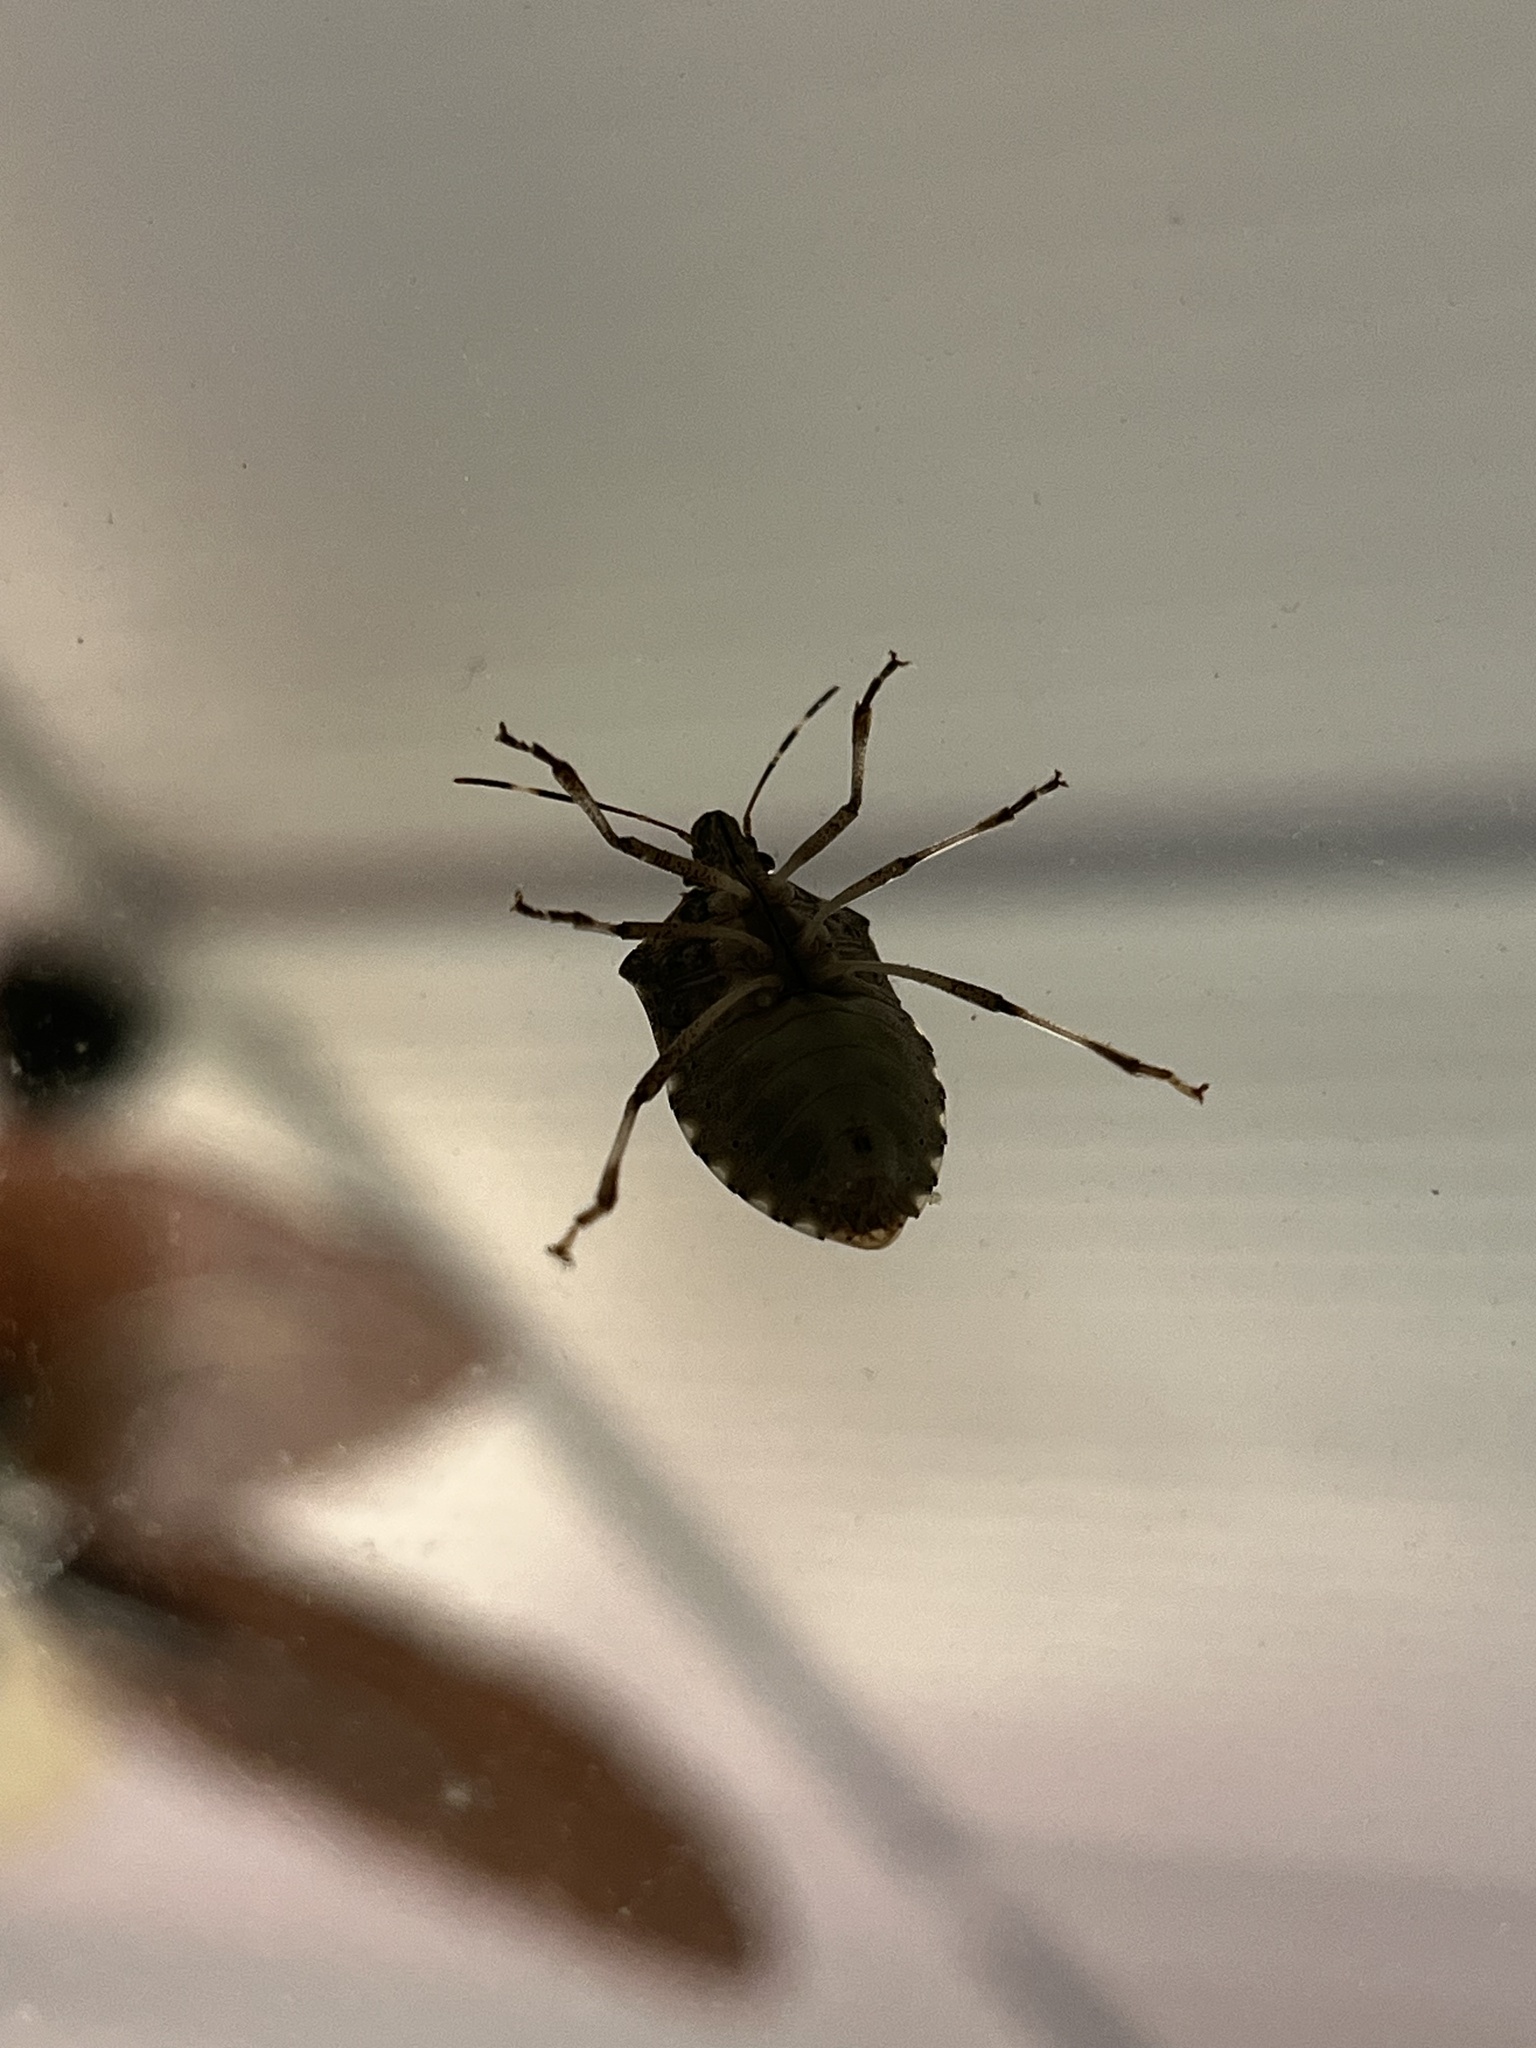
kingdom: Animalia
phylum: Arthropoda
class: Insecta
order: Hemiptera
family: Pentatomidae
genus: Halyomorpha
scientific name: Halyomorpha halys
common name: Brown marmorated stink bug
